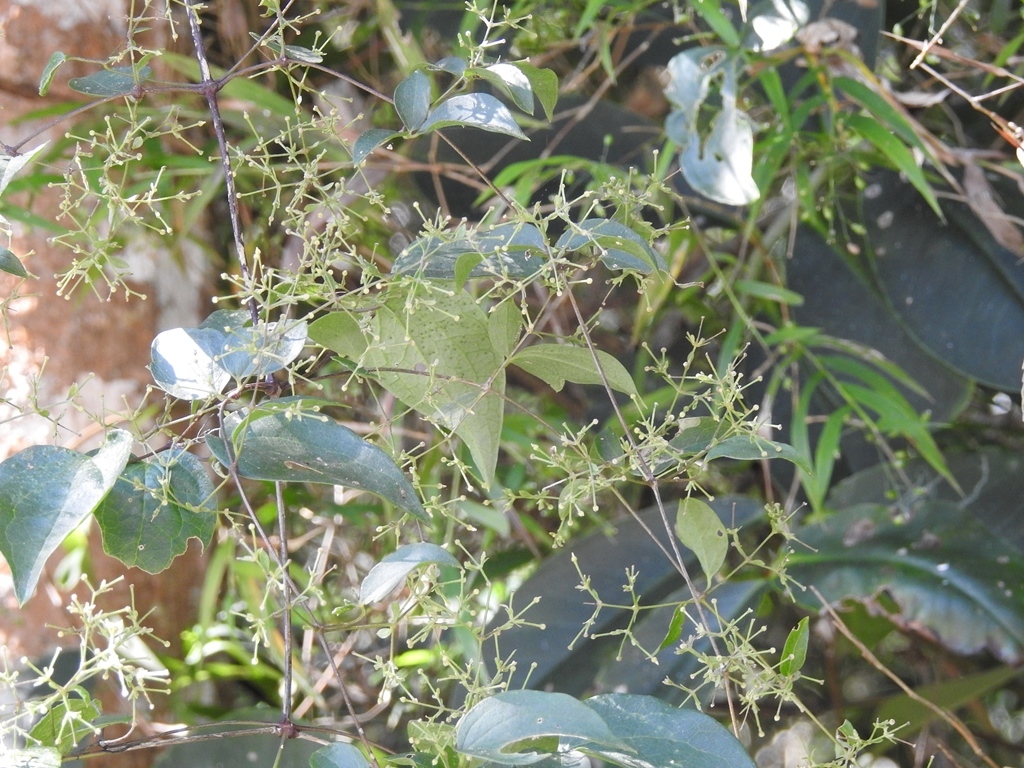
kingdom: Plantae
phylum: Tracheophyta
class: Magnoliopsida
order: Ranunculales
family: Ranunculaceae
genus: Clematis
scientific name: Clematis dioica
